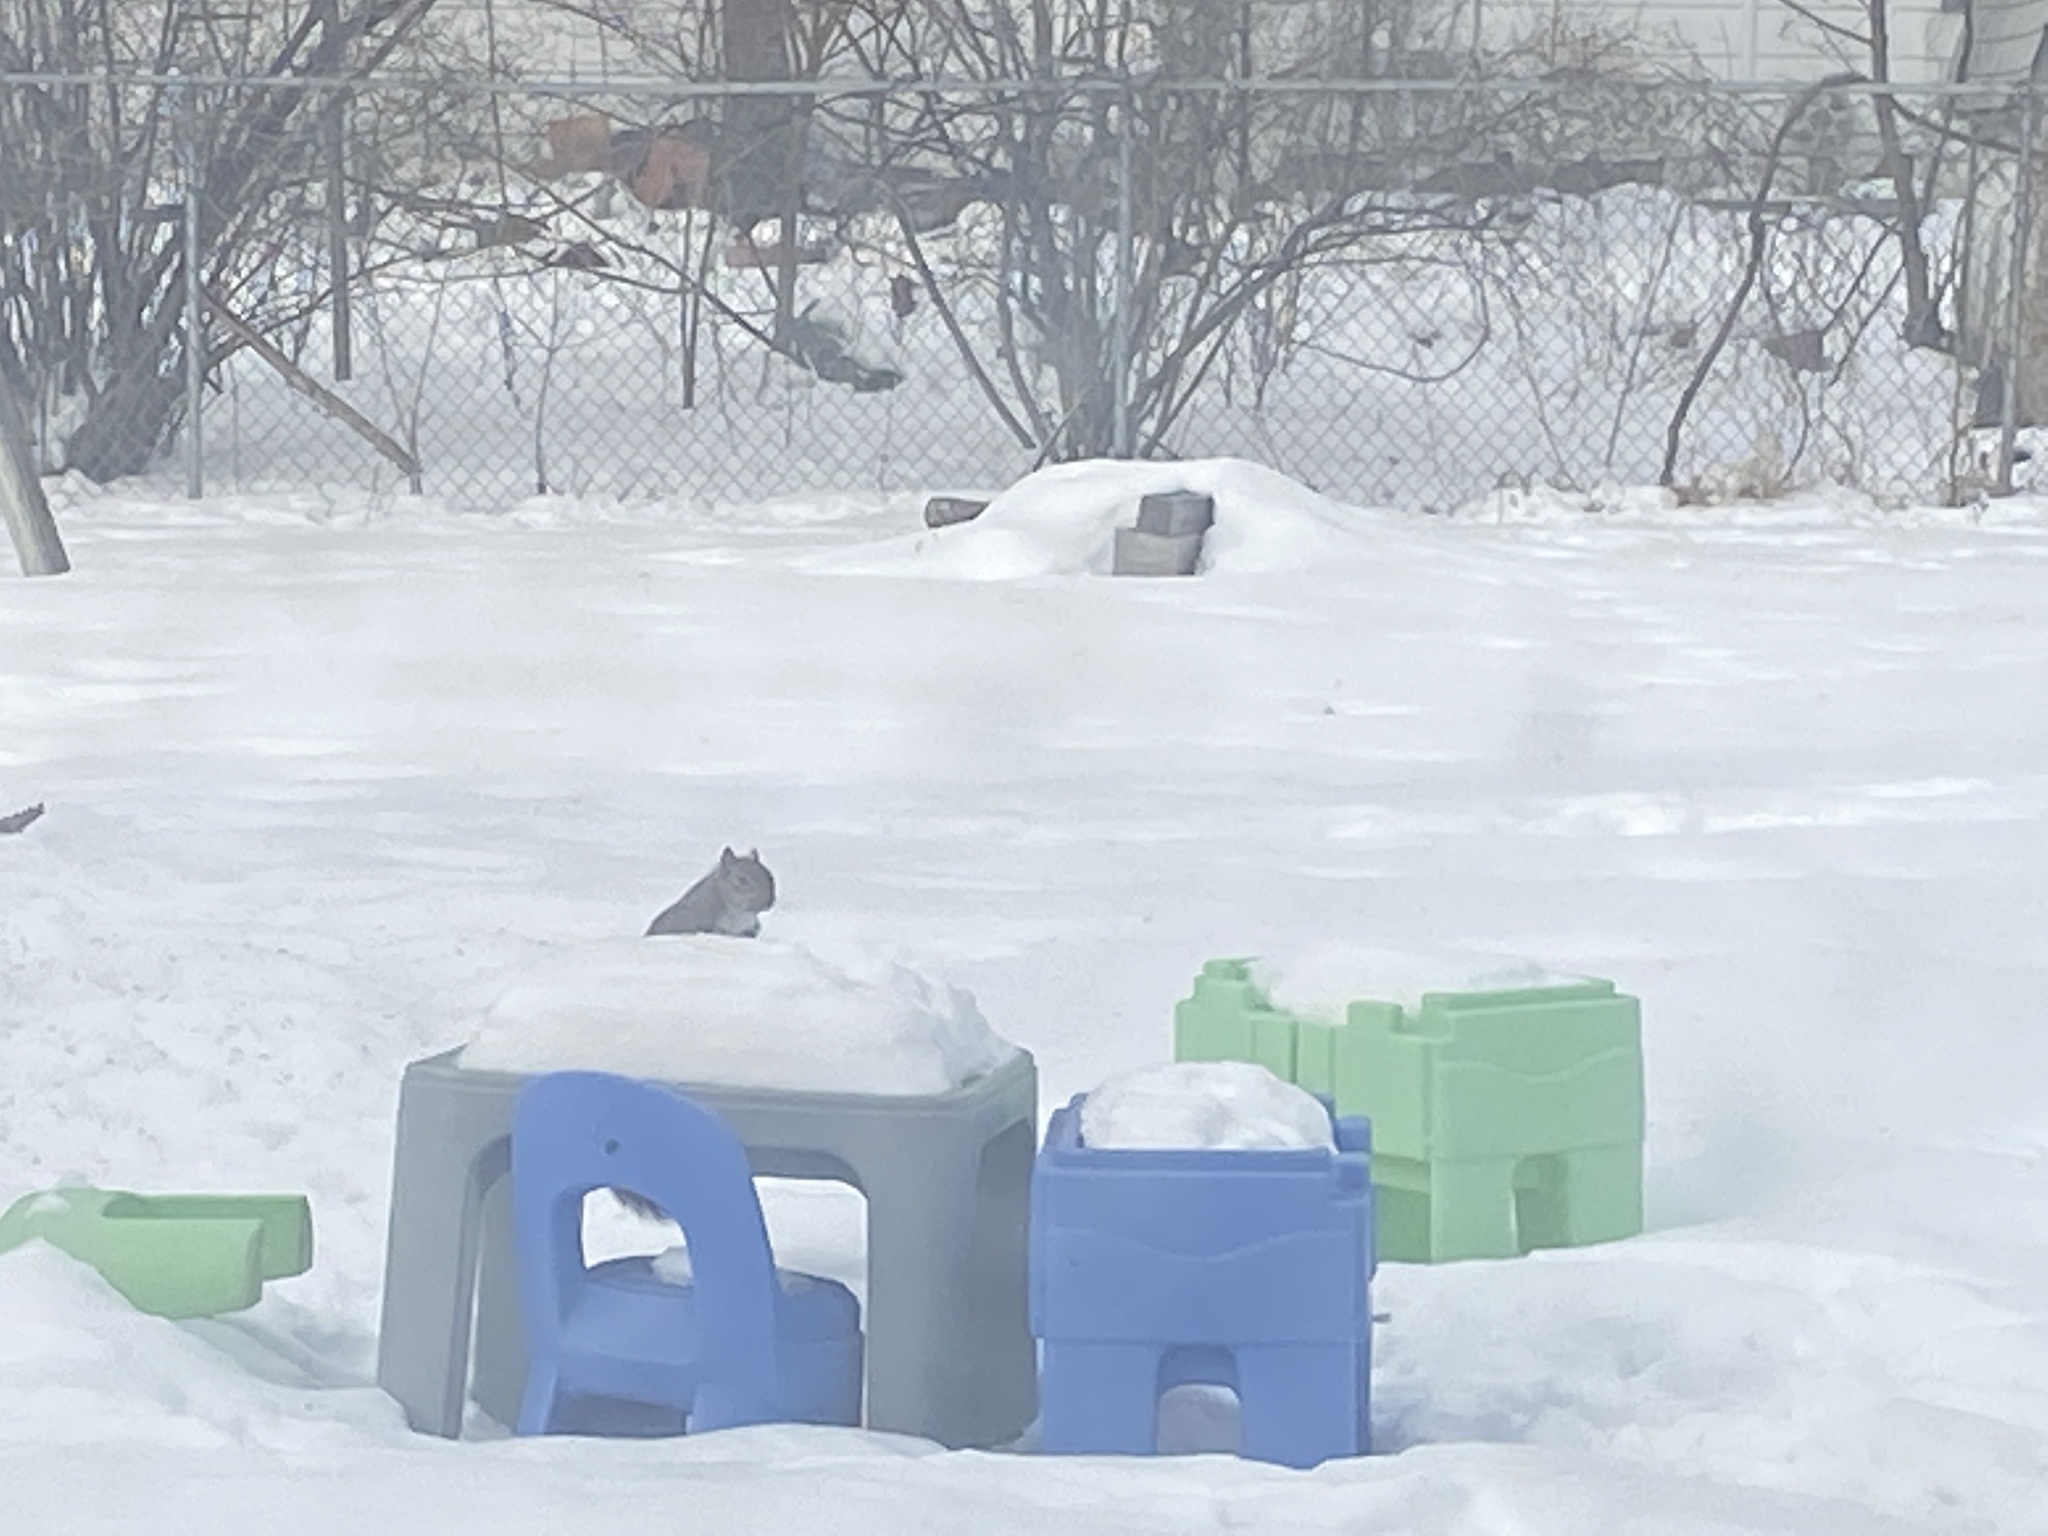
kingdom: Animalia
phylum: Chordata
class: Mammalia
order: Rodentia
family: Sciuridae
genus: Sciurus
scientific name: Sciurus carolinensis
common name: Eastern gray squirrel
